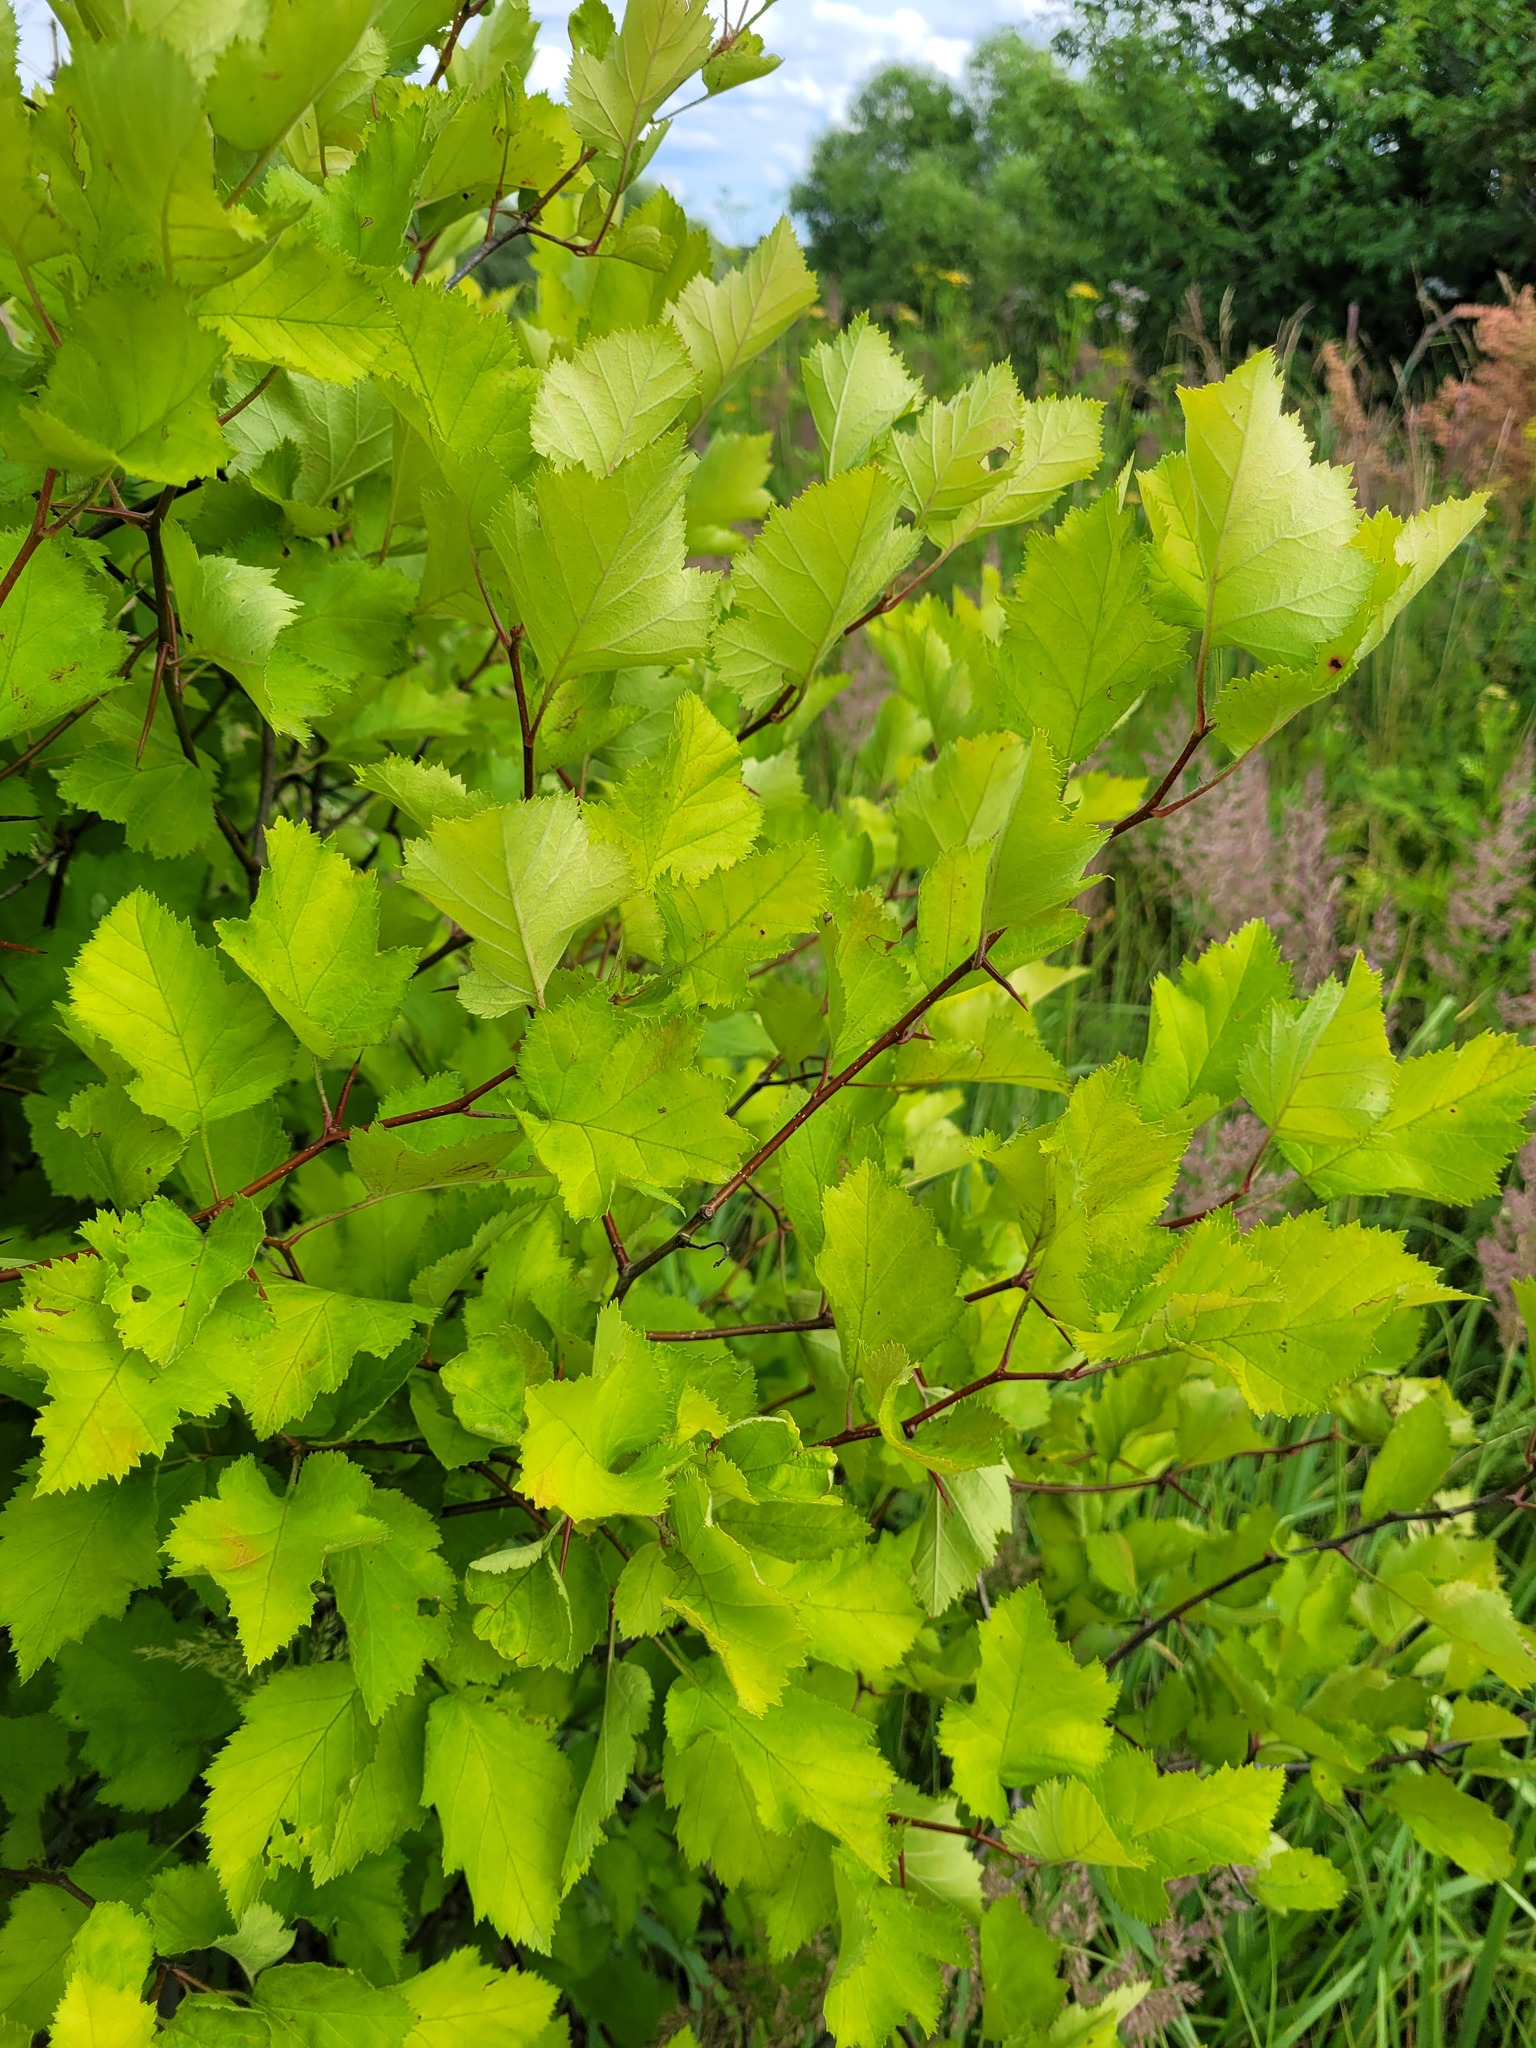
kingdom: Plantae
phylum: Tracheophyta
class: Magnoliopsida
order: Rosales
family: Rosaceae
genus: Crataegus
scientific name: Crataegus submollis
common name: Hairy cockspurthorn
